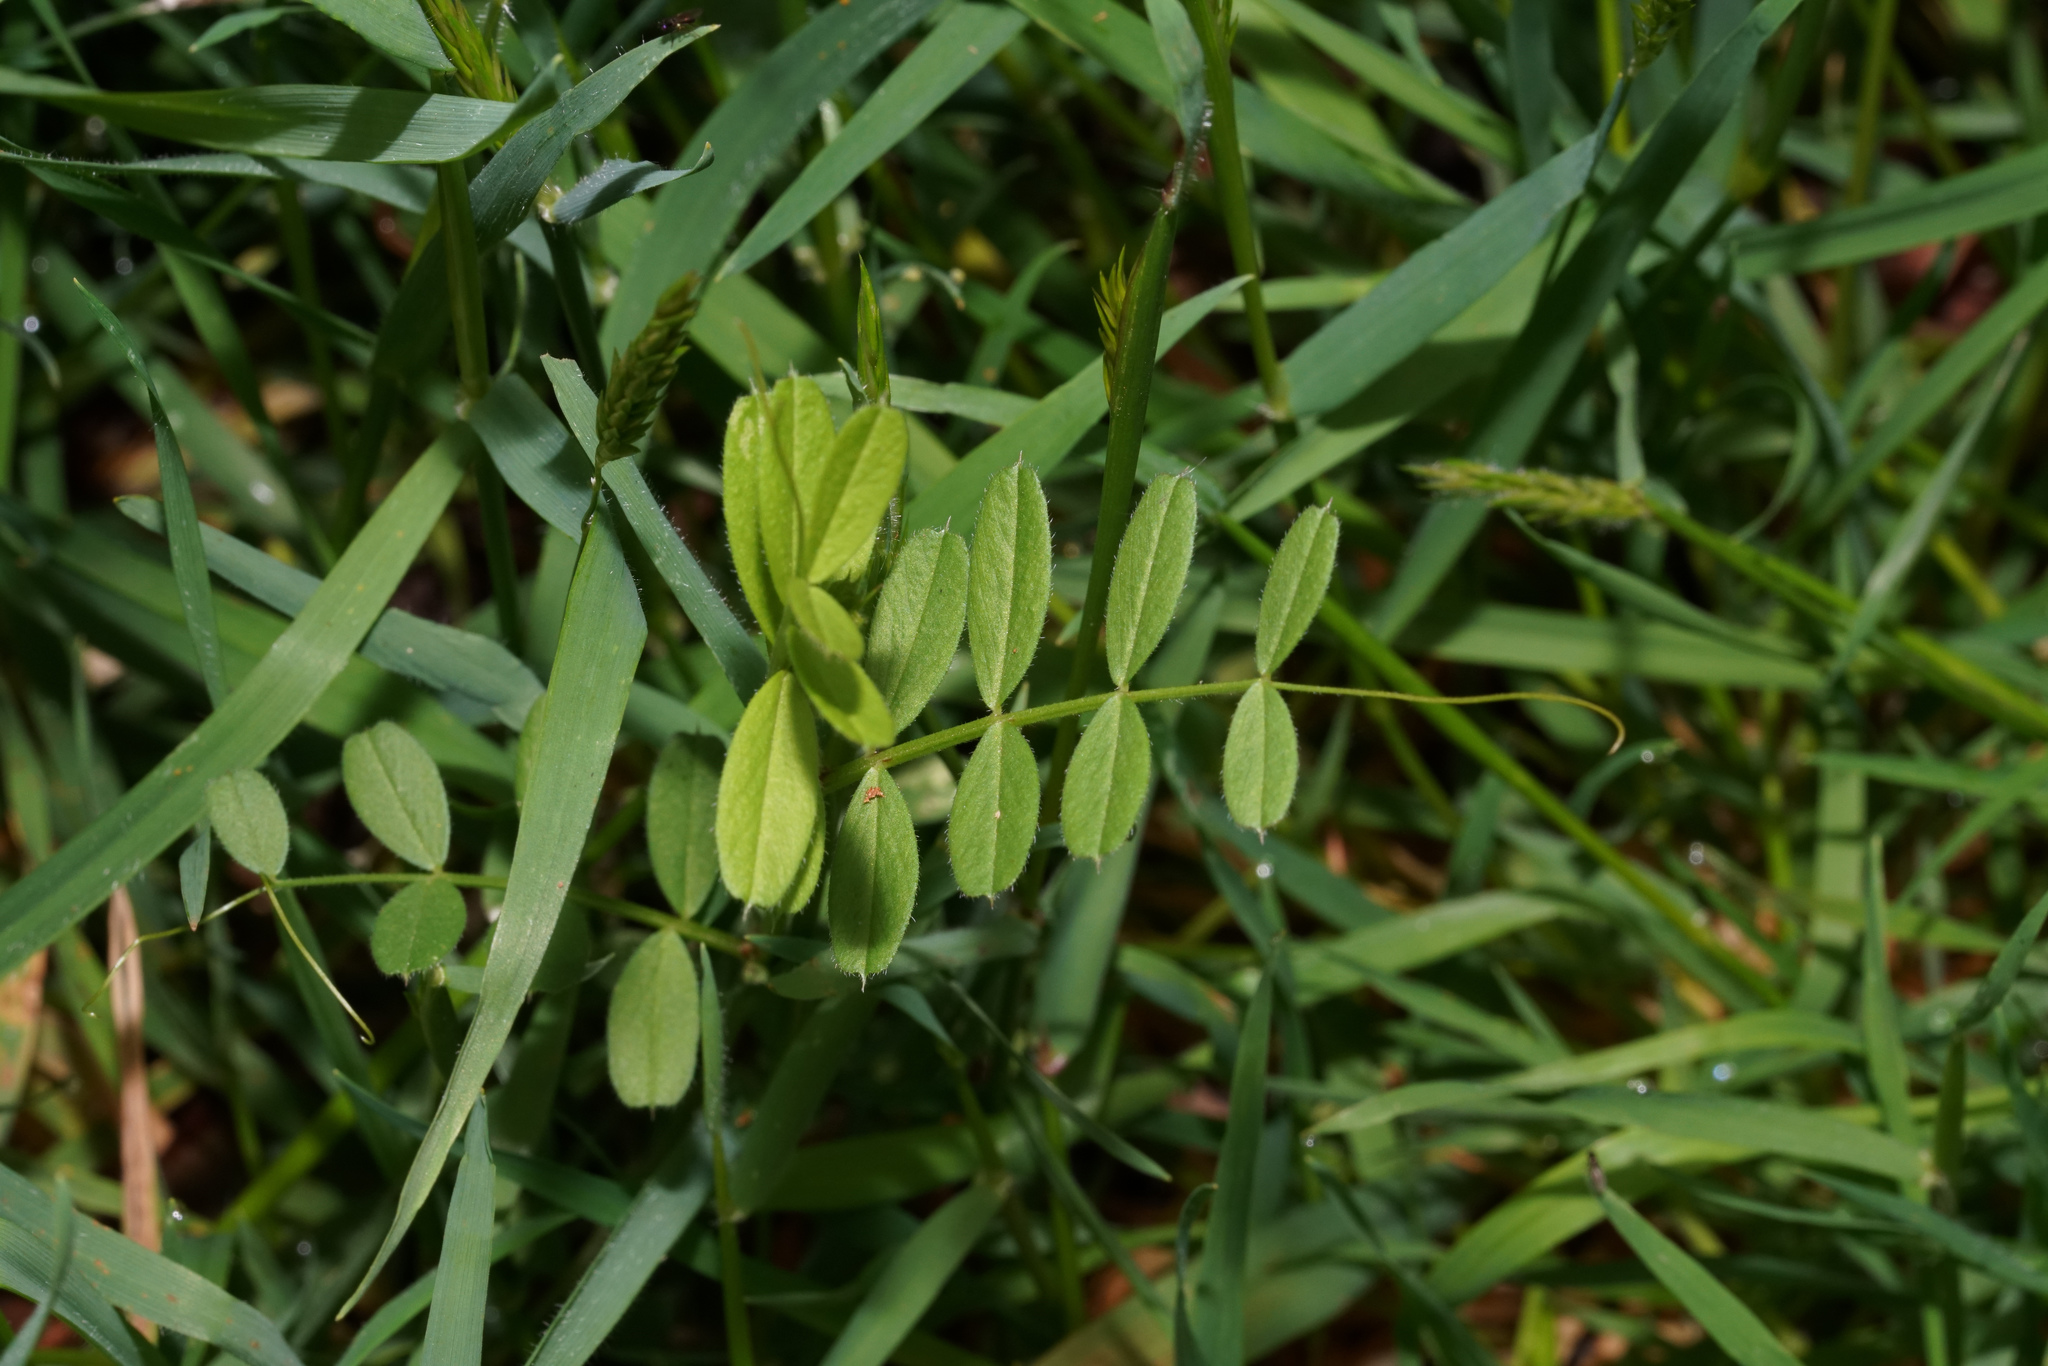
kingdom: Plantae
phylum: Tracheophyta
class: Magnoliopsida
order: Fabales
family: Fabaceae
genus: Vicia
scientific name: Vicia sativa
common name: Garden vetch
